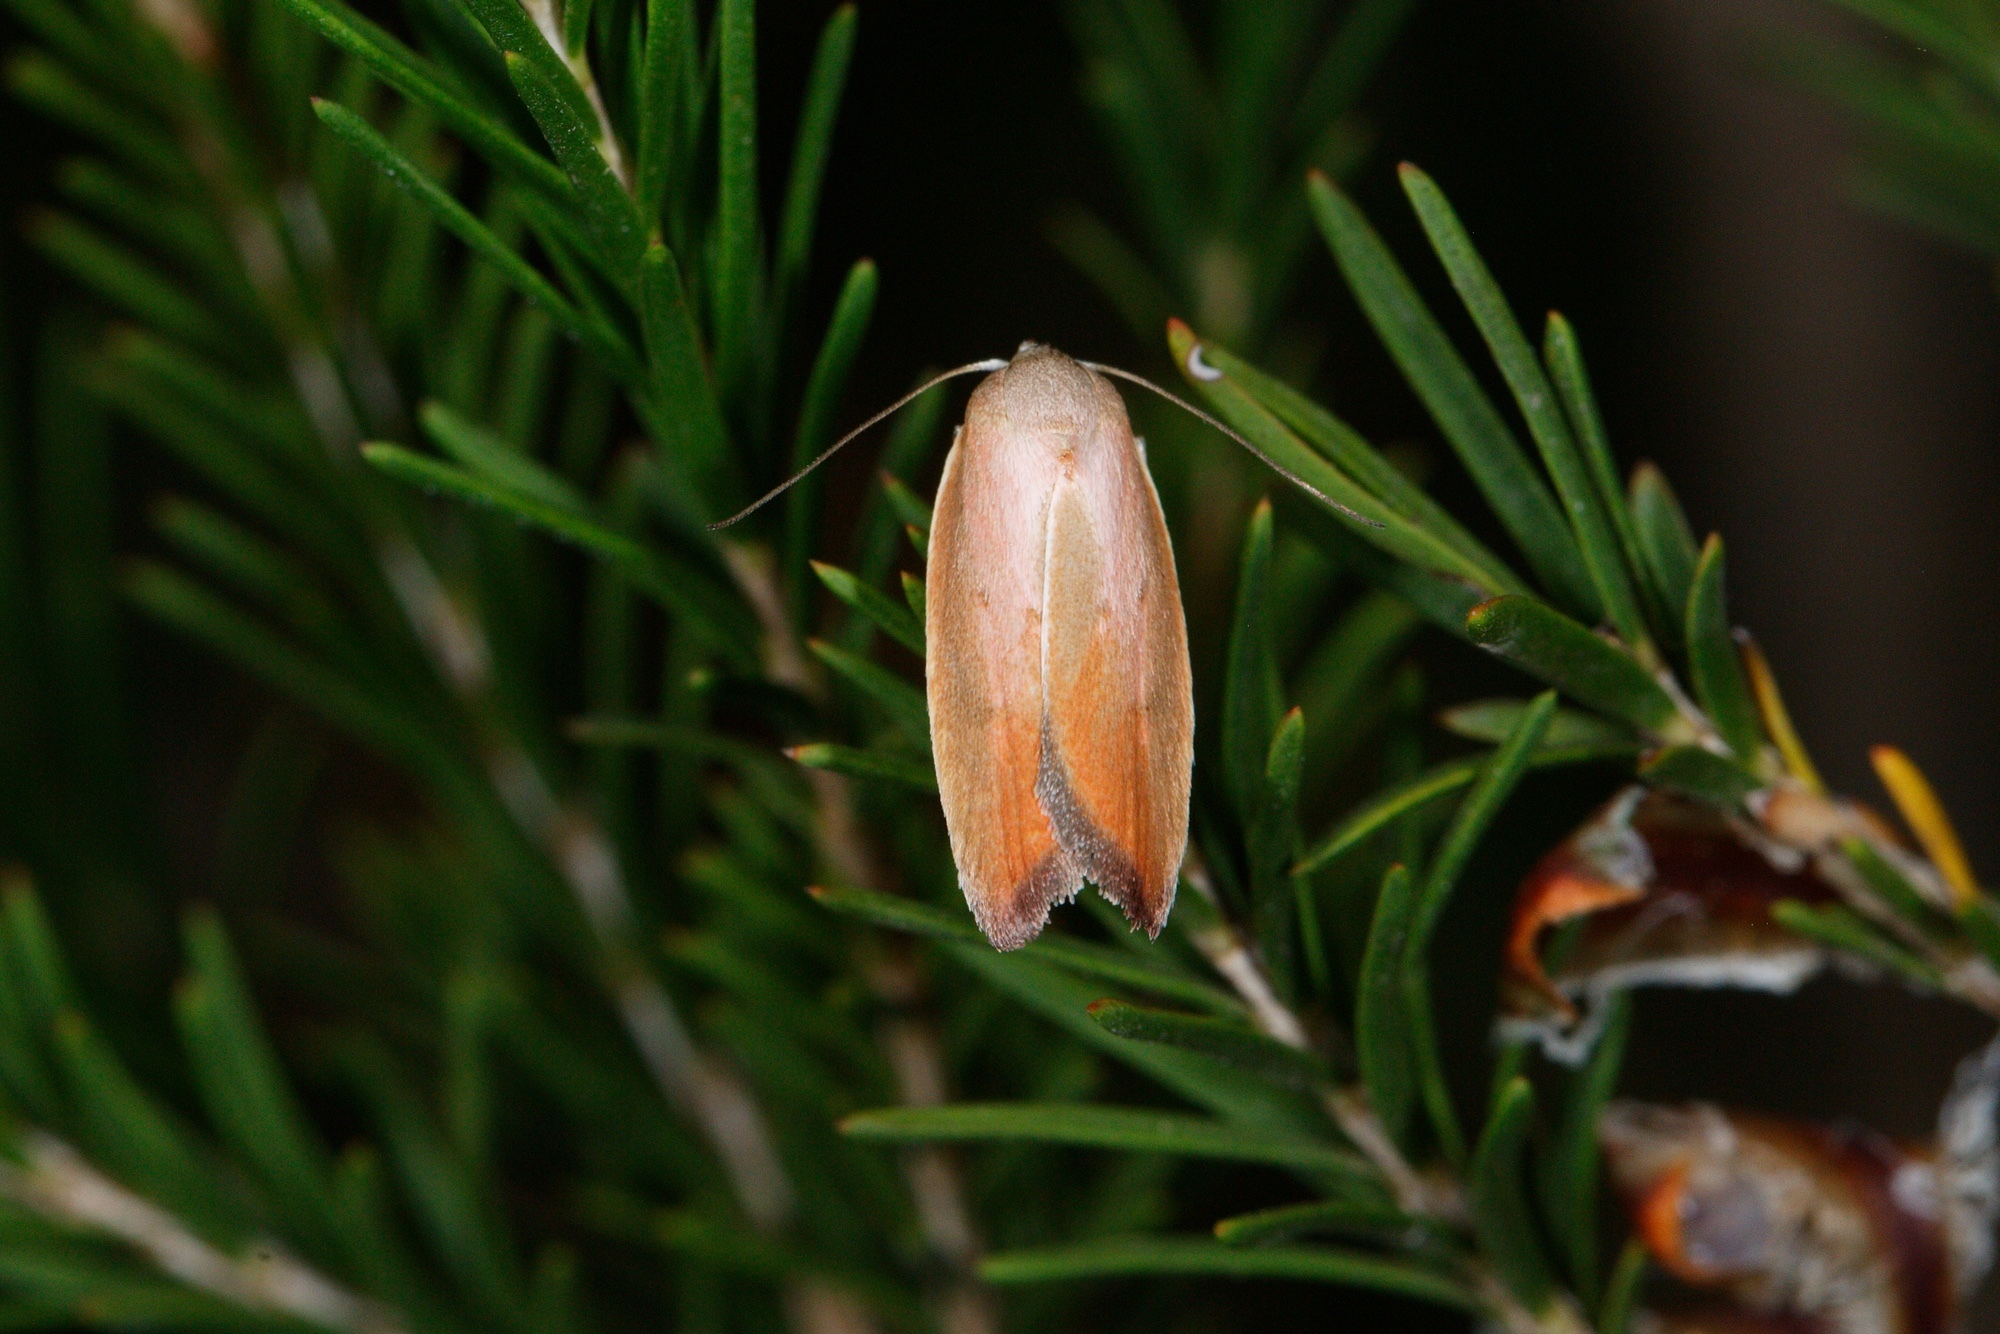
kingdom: Animalia
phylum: Arthropoda
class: Insecta
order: Lepidoptera
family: Oecophoridae
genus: Ptyoptila
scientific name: Ptyoptila matutinella
